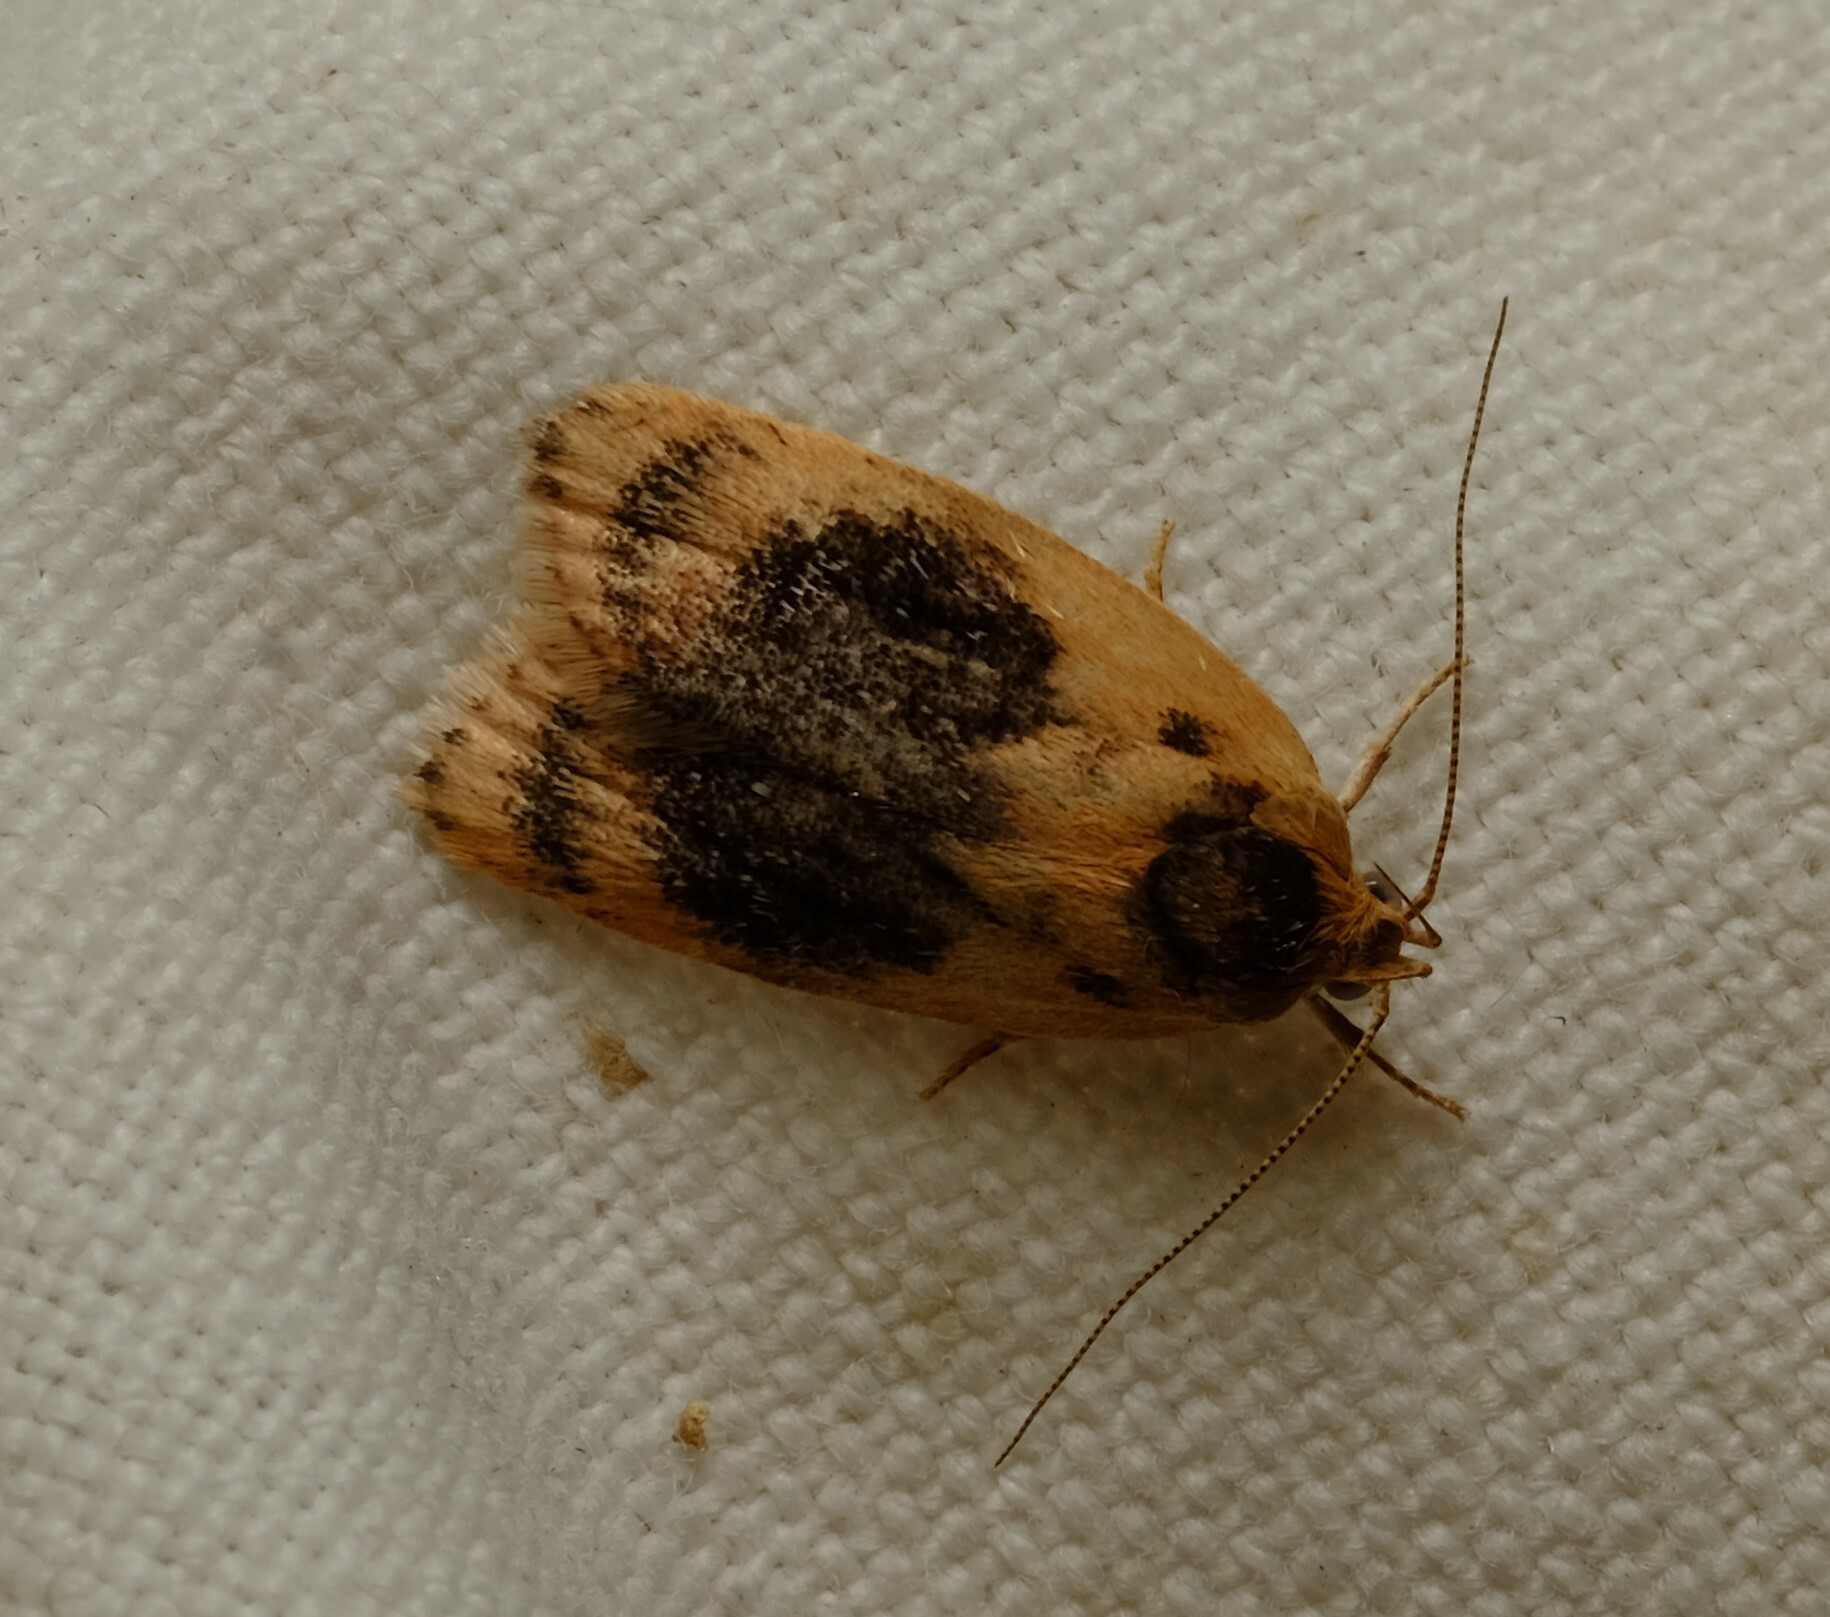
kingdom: Animalia
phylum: Arthropoda
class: Insecta
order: Lepidoptera
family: Oecophoridae
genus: Garrha
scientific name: Garrha ocellifera
